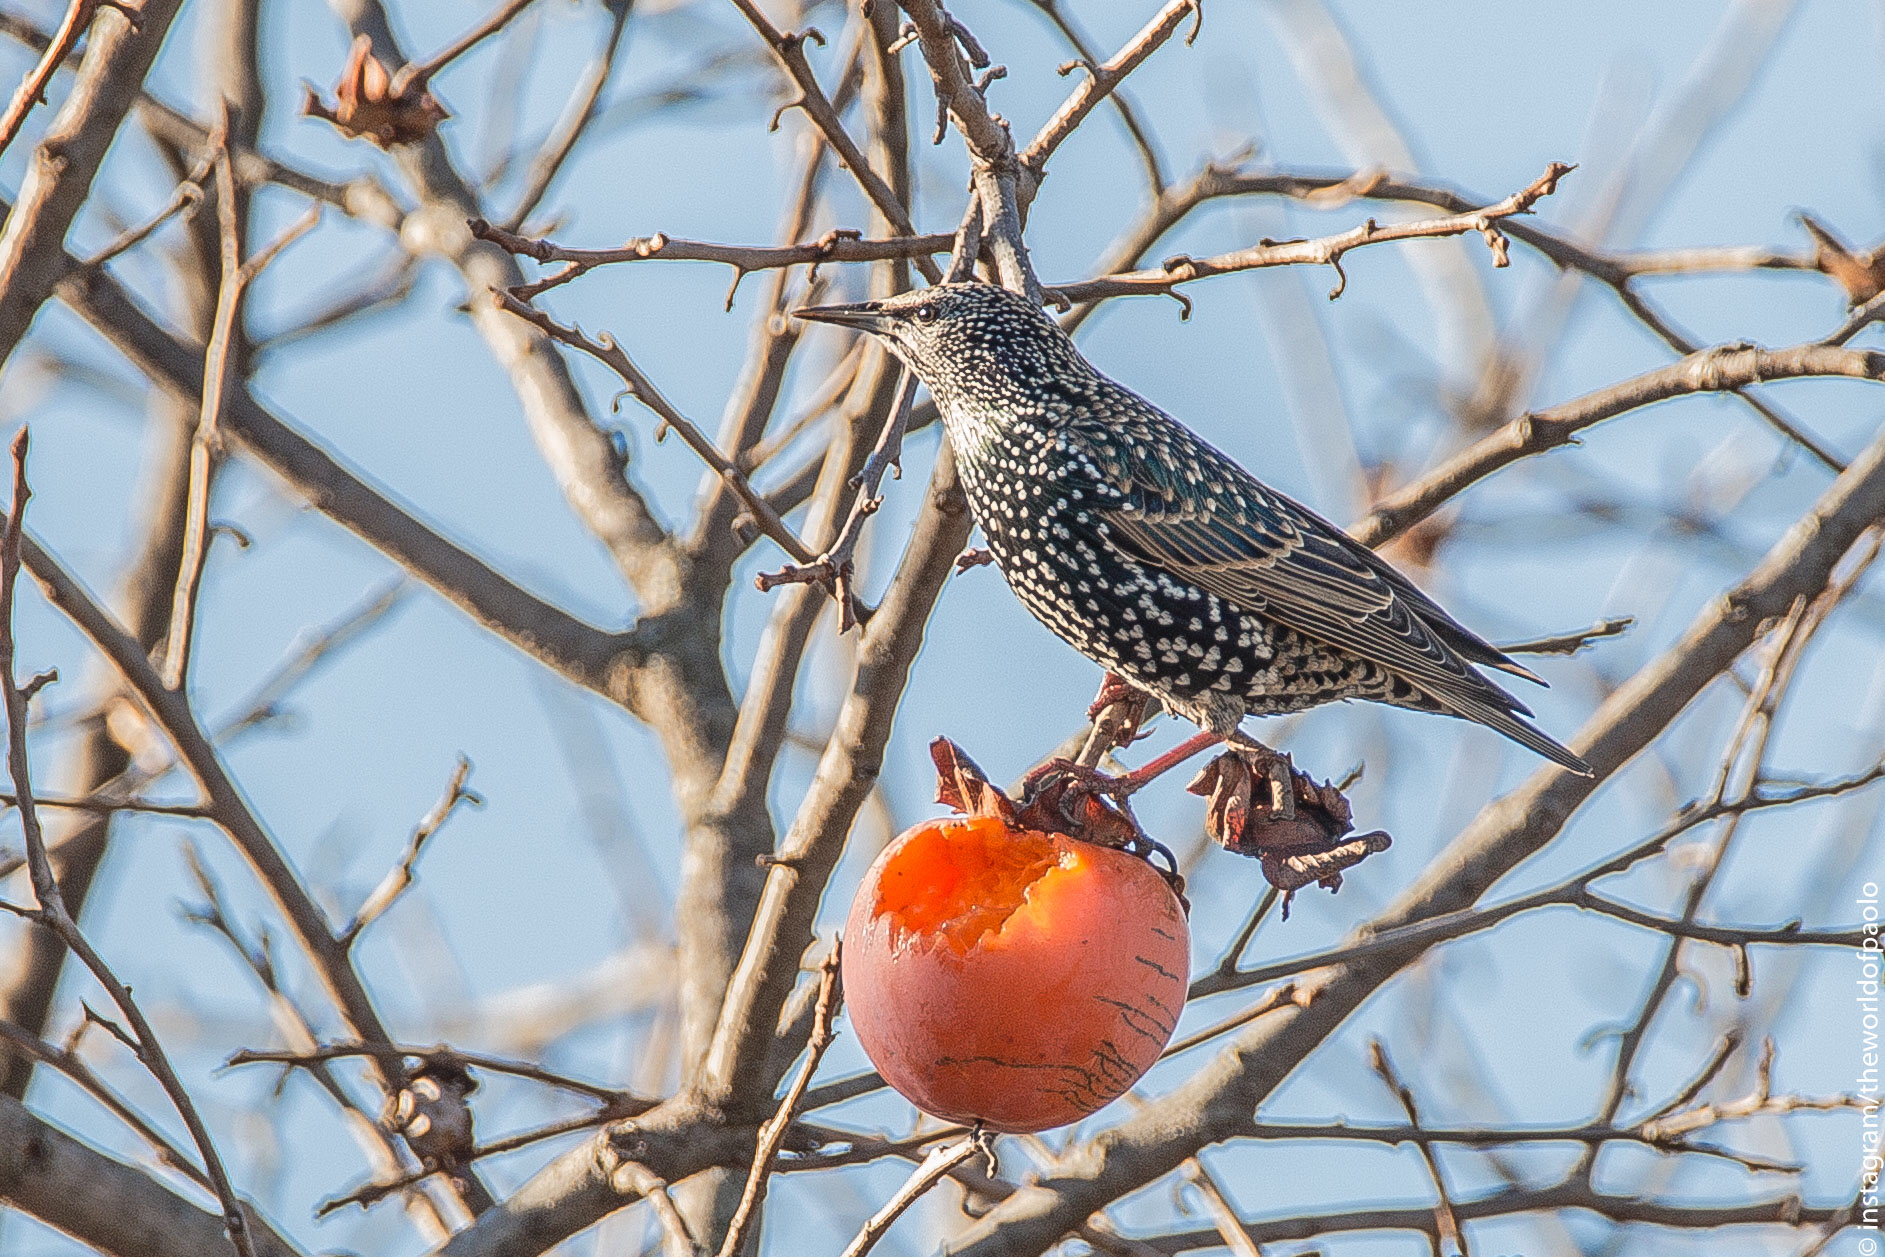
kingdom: Animalia
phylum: Chordata
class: Aves
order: Passeriformes
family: Sturnidae
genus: Sturnus
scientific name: Sturnus vulgaris
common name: Common starling
